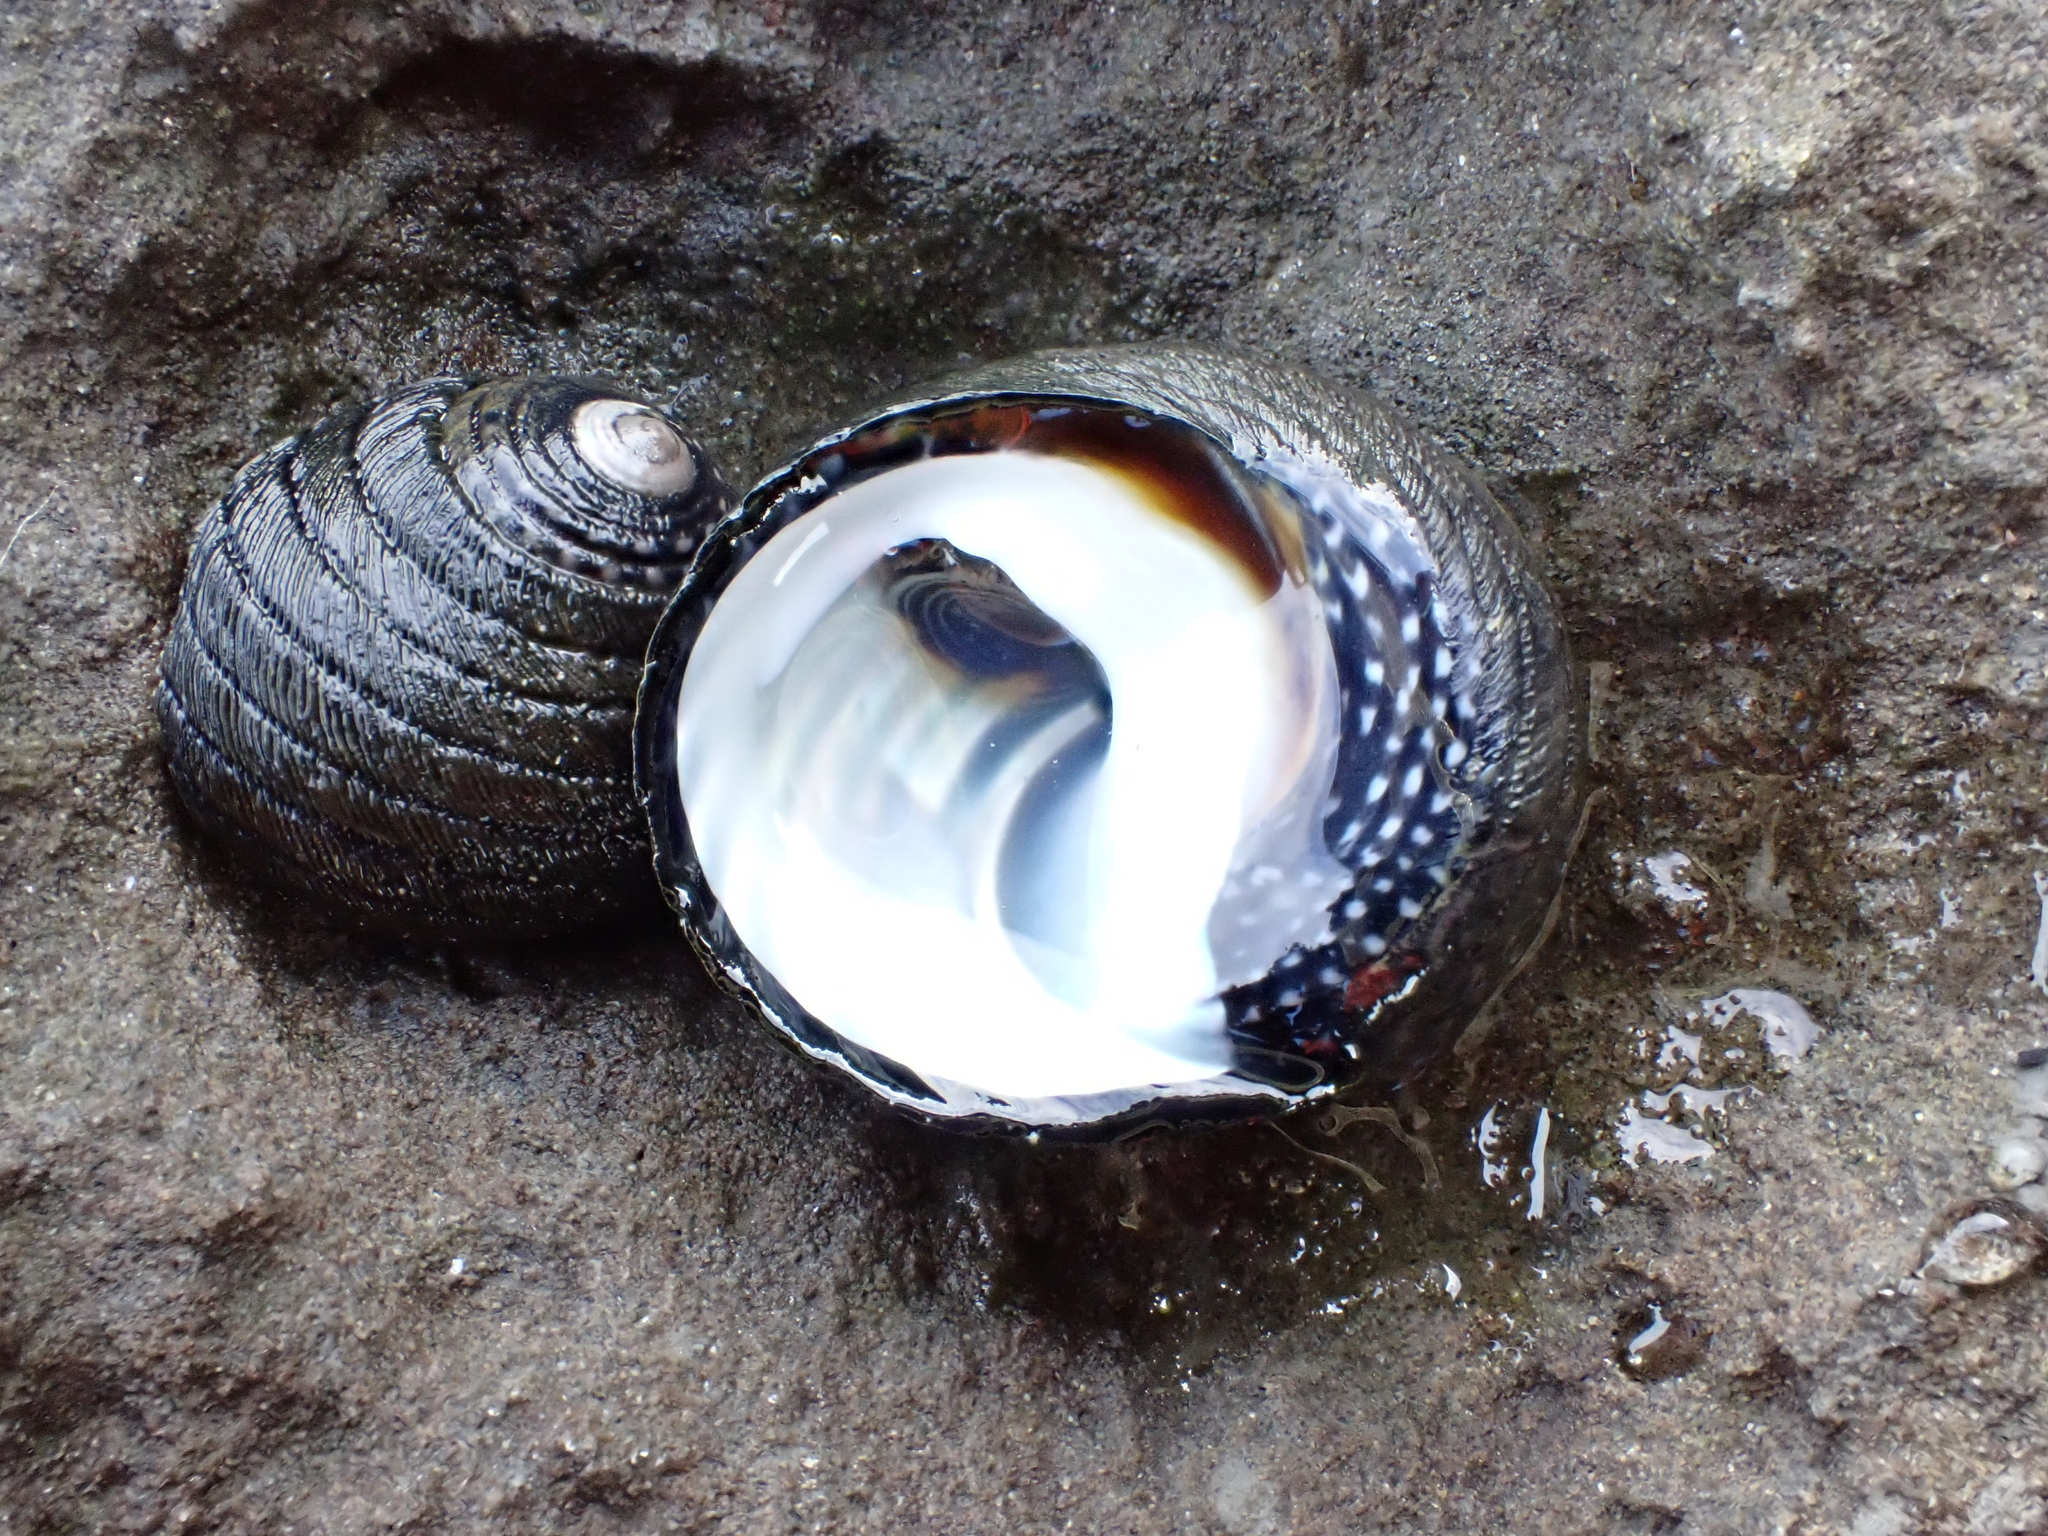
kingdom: Animalia
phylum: Mollusca
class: Gastropoda
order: Trochida
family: Trochidae
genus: Diloma
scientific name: Diloma aethiops
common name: Scorched monodont
